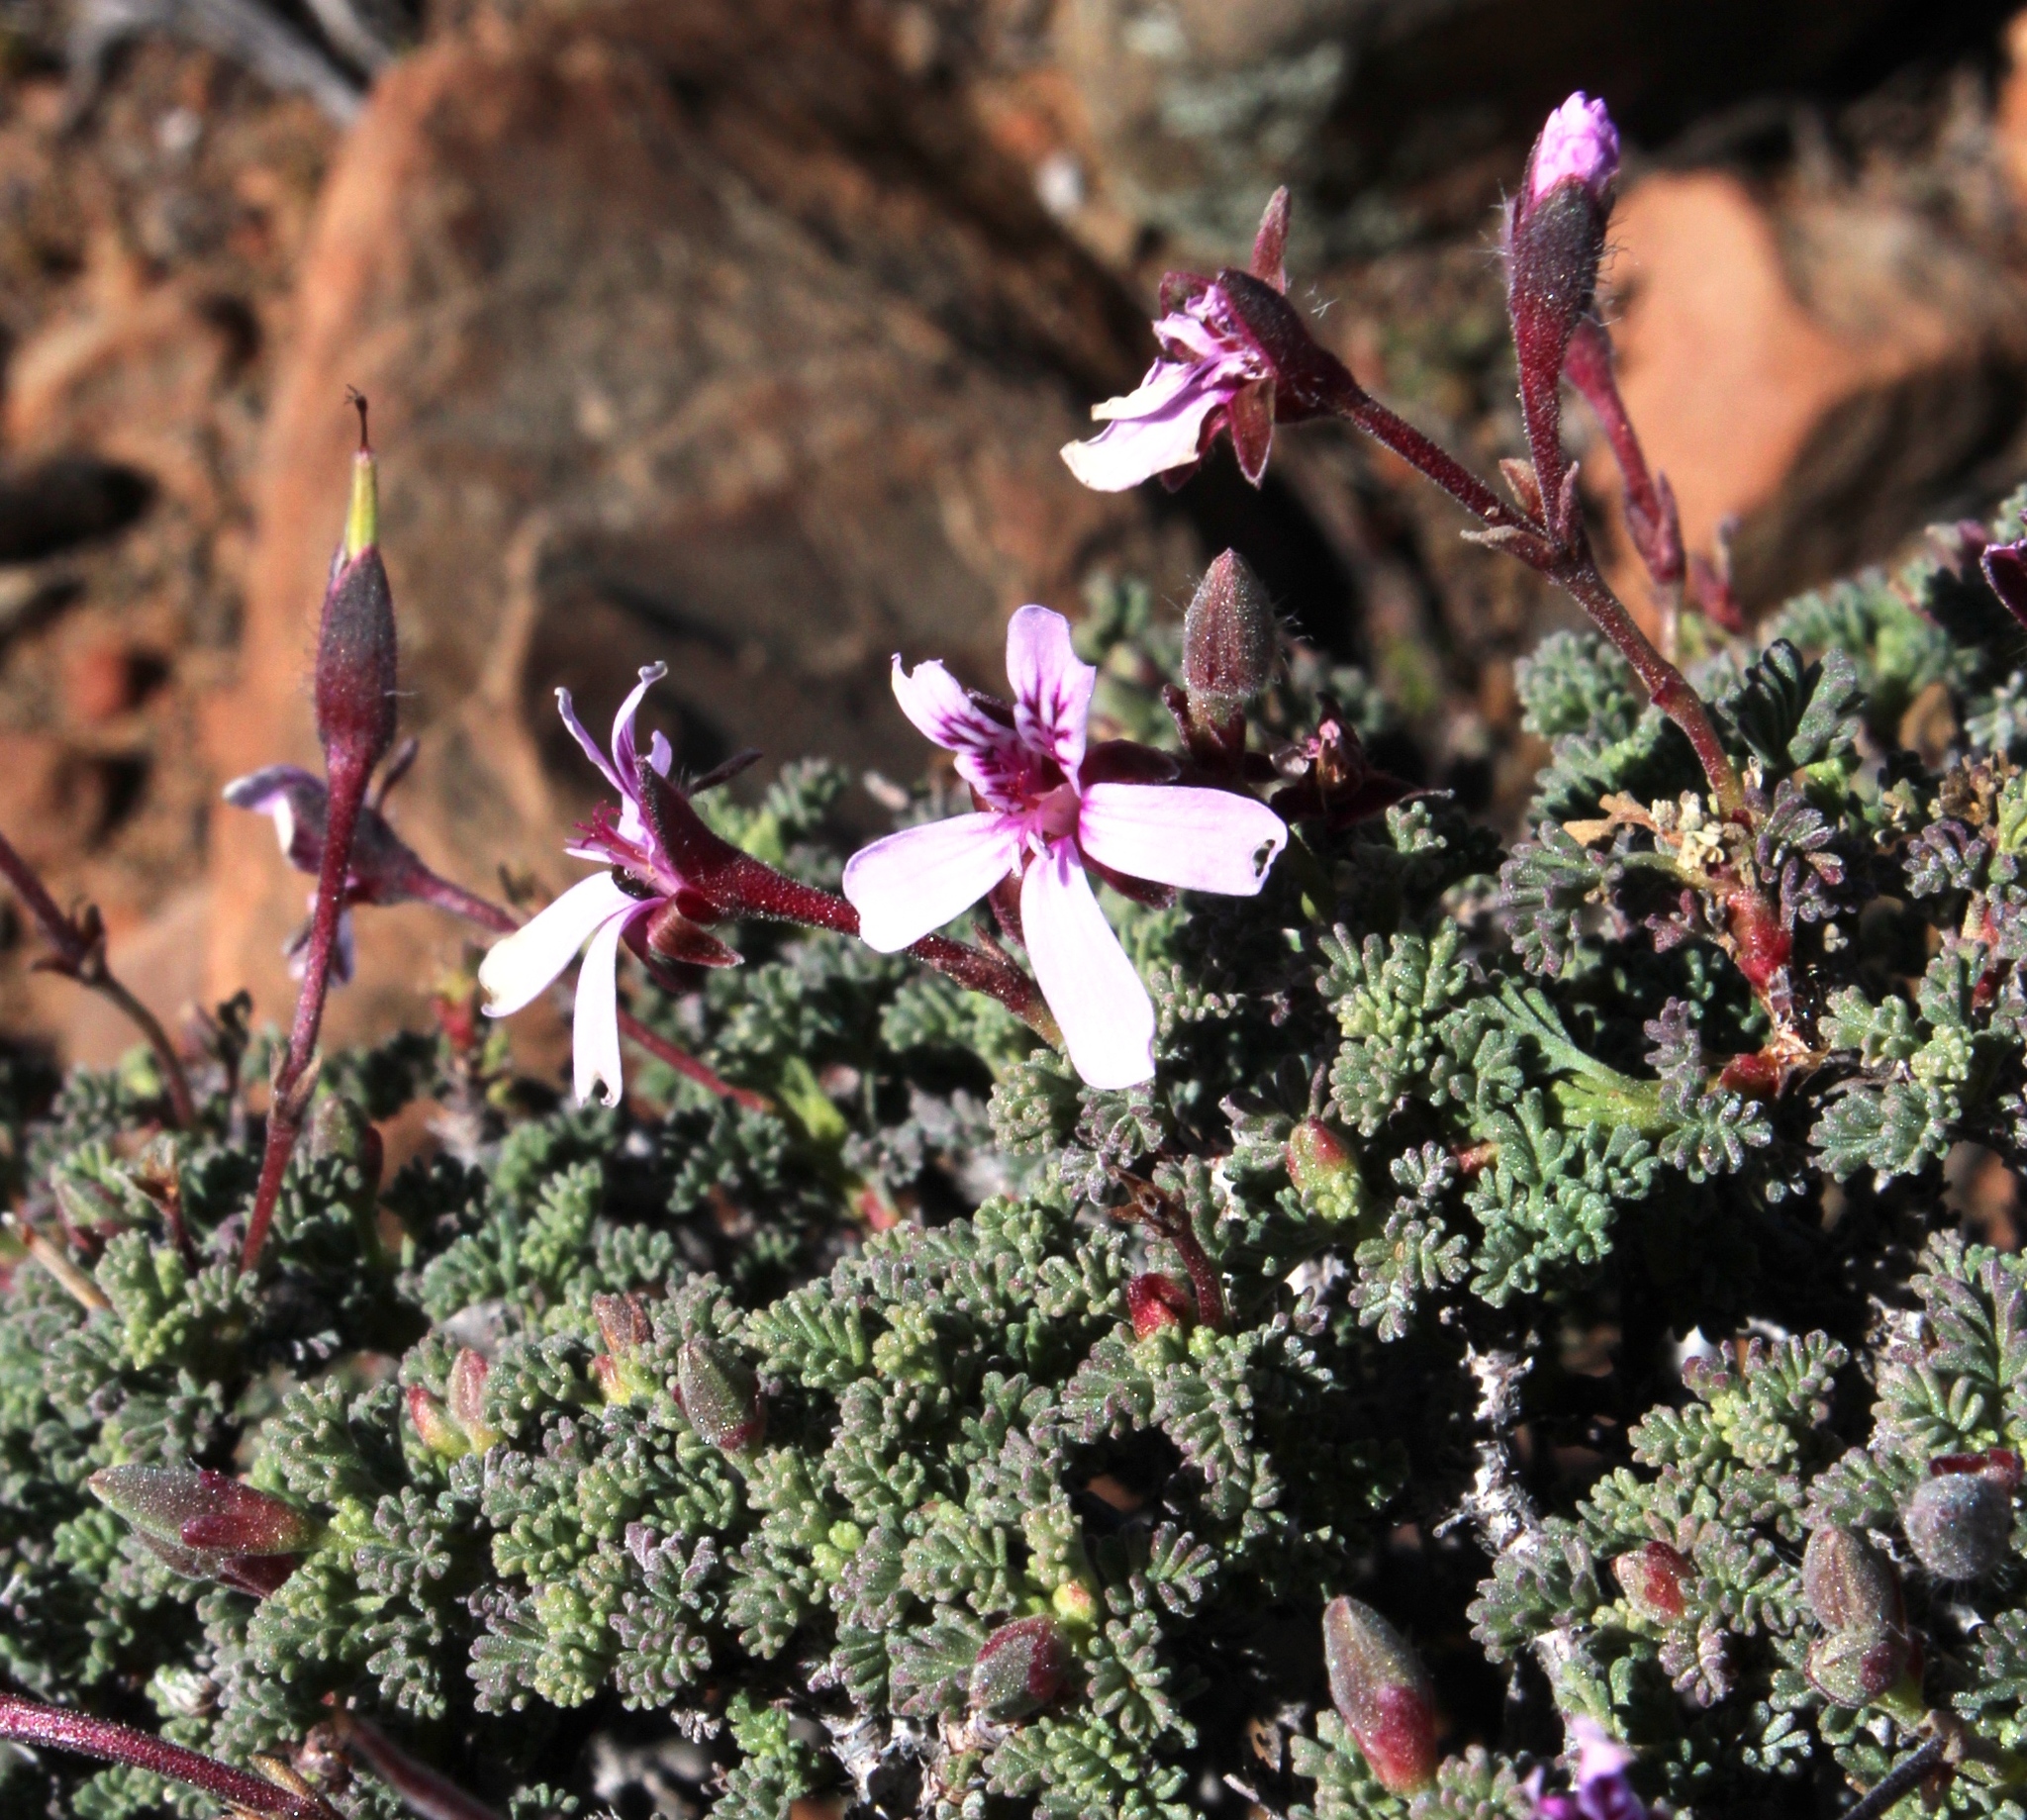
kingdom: Plantae
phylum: Tracheophyta
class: Magnoliopsida
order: Geraniales
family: Geraniaceae
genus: Pelargonium
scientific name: Pelargonium abrotanifolium
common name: Southernwood geranium
